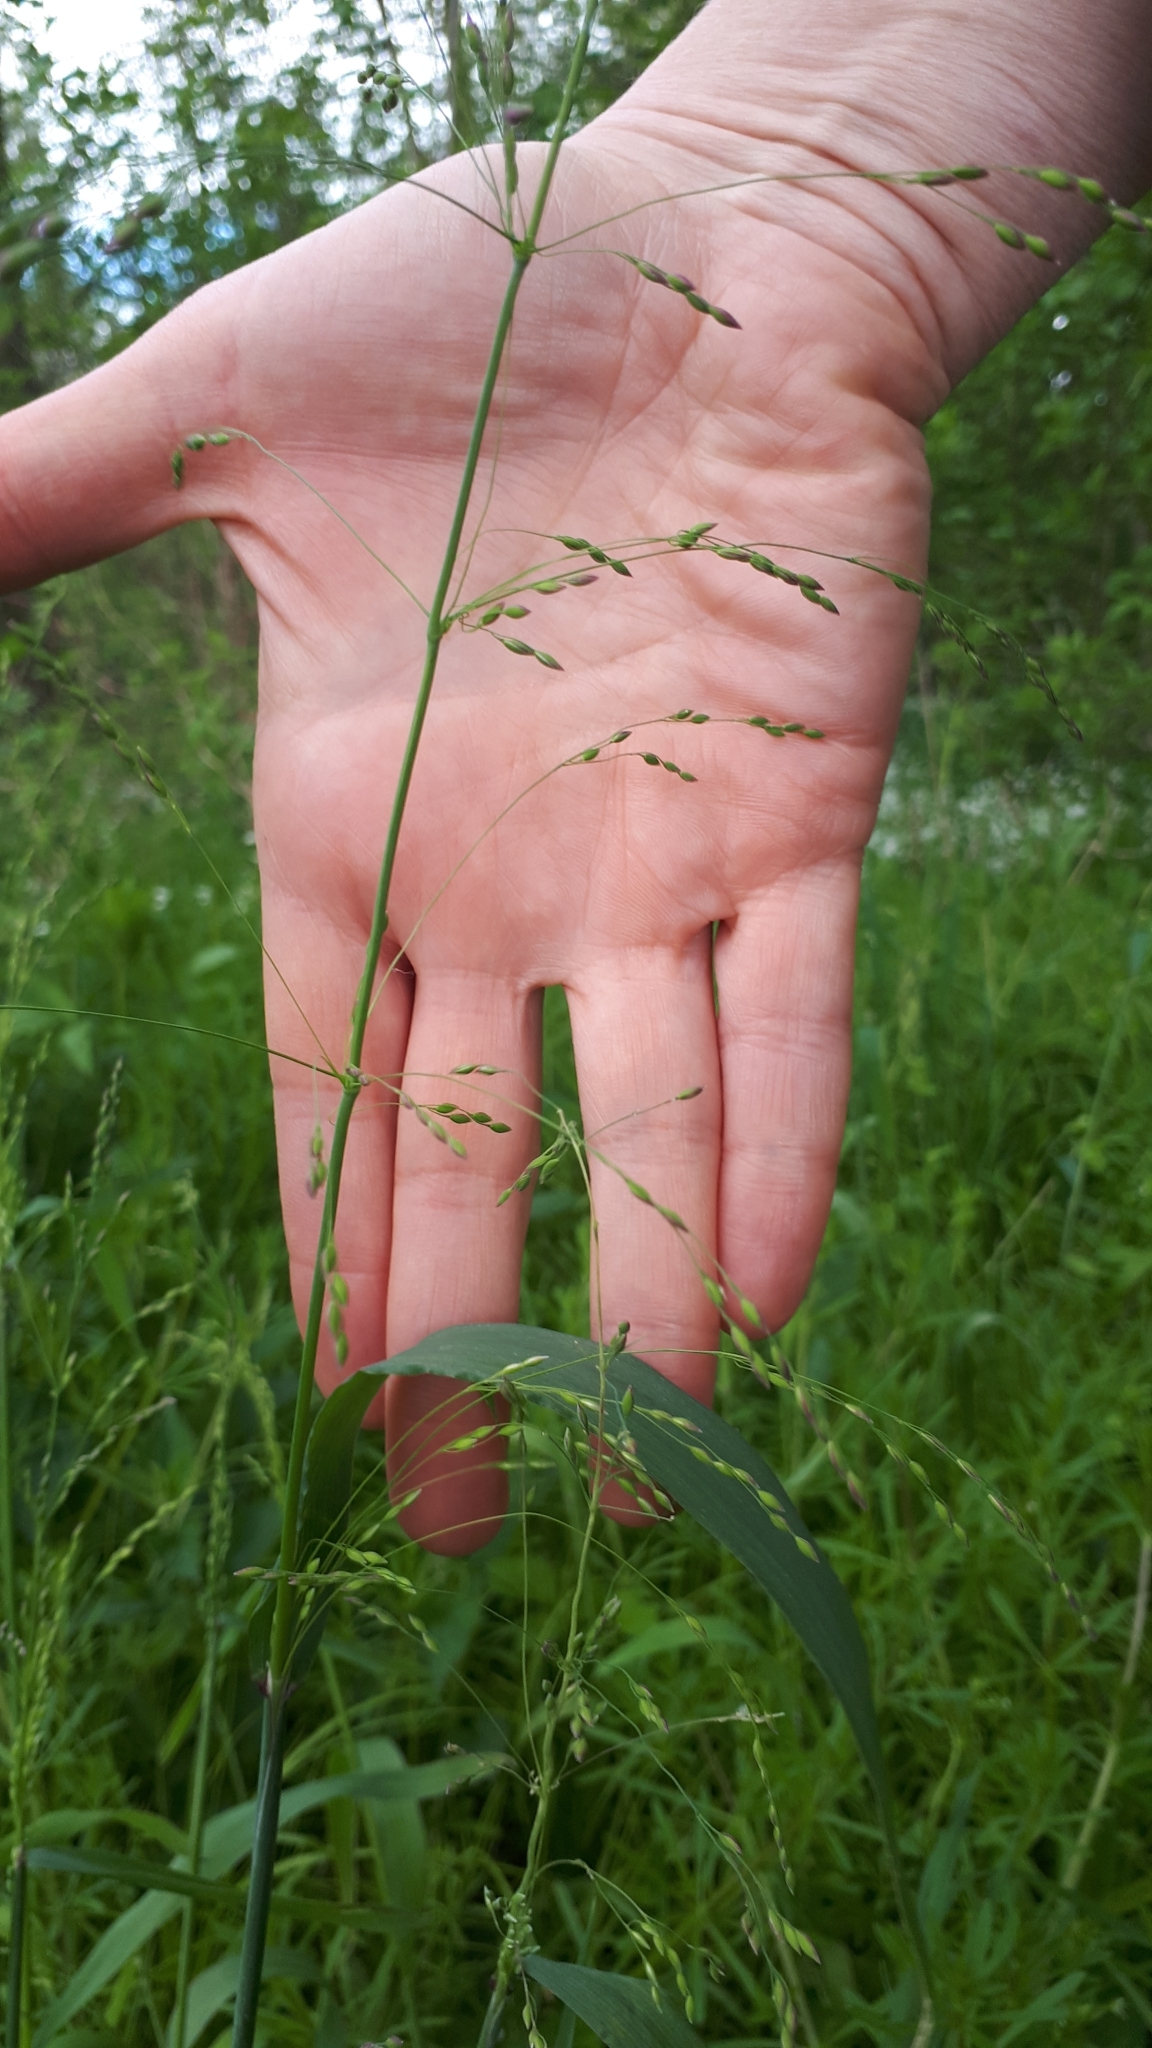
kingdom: Plantae
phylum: Tracheophyta
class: Liliopsida
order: Poales
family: Poaceae
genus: Milium
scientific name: Milium effusum
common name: Wood millet
